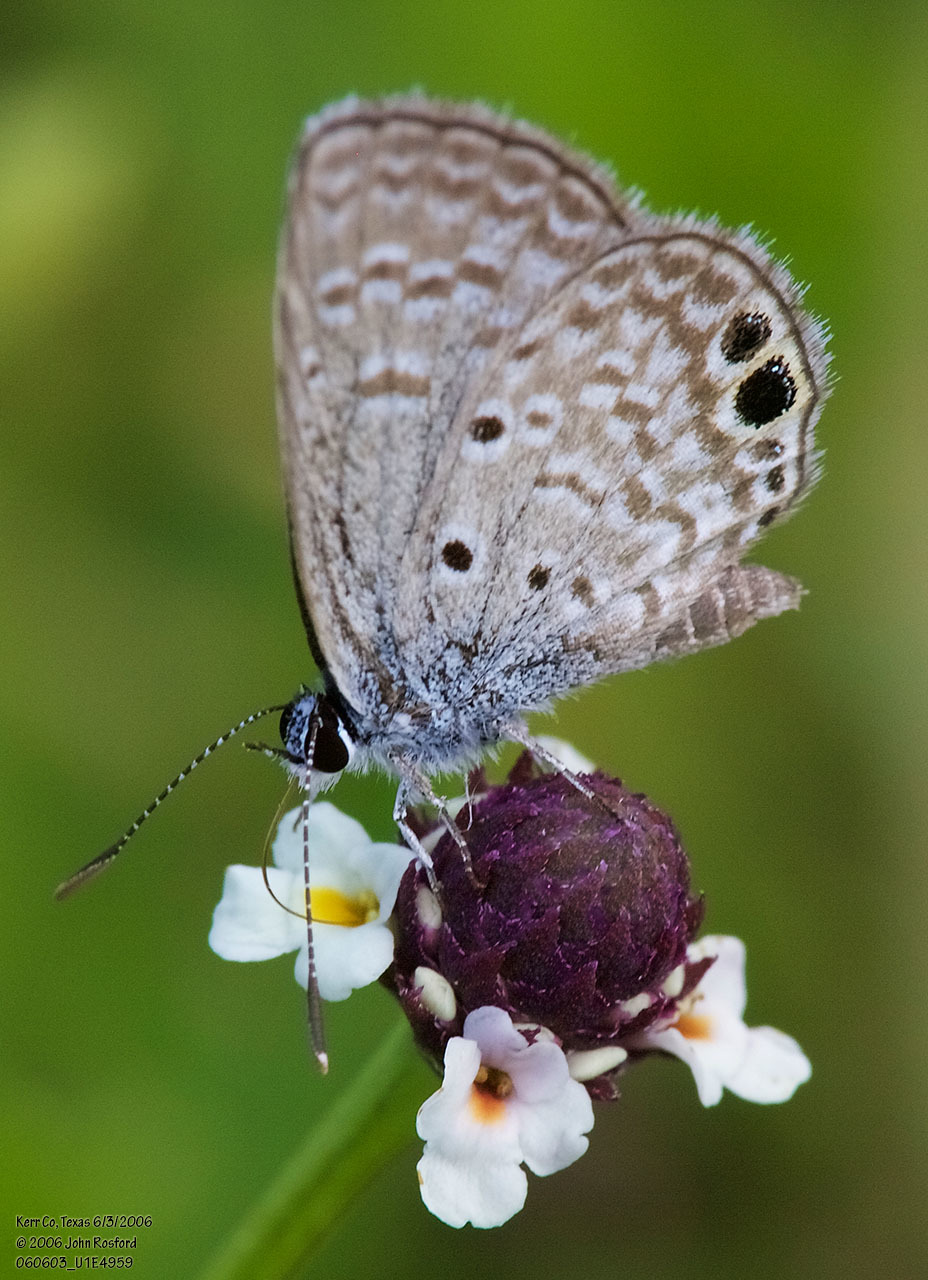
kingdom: Animalia
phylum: Arthropoda
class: Insecta
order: Lepidoptera
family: Lycaenidae
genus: Hemiargus
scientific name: Hemiargus ceraunus
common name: Ceraunus blue
